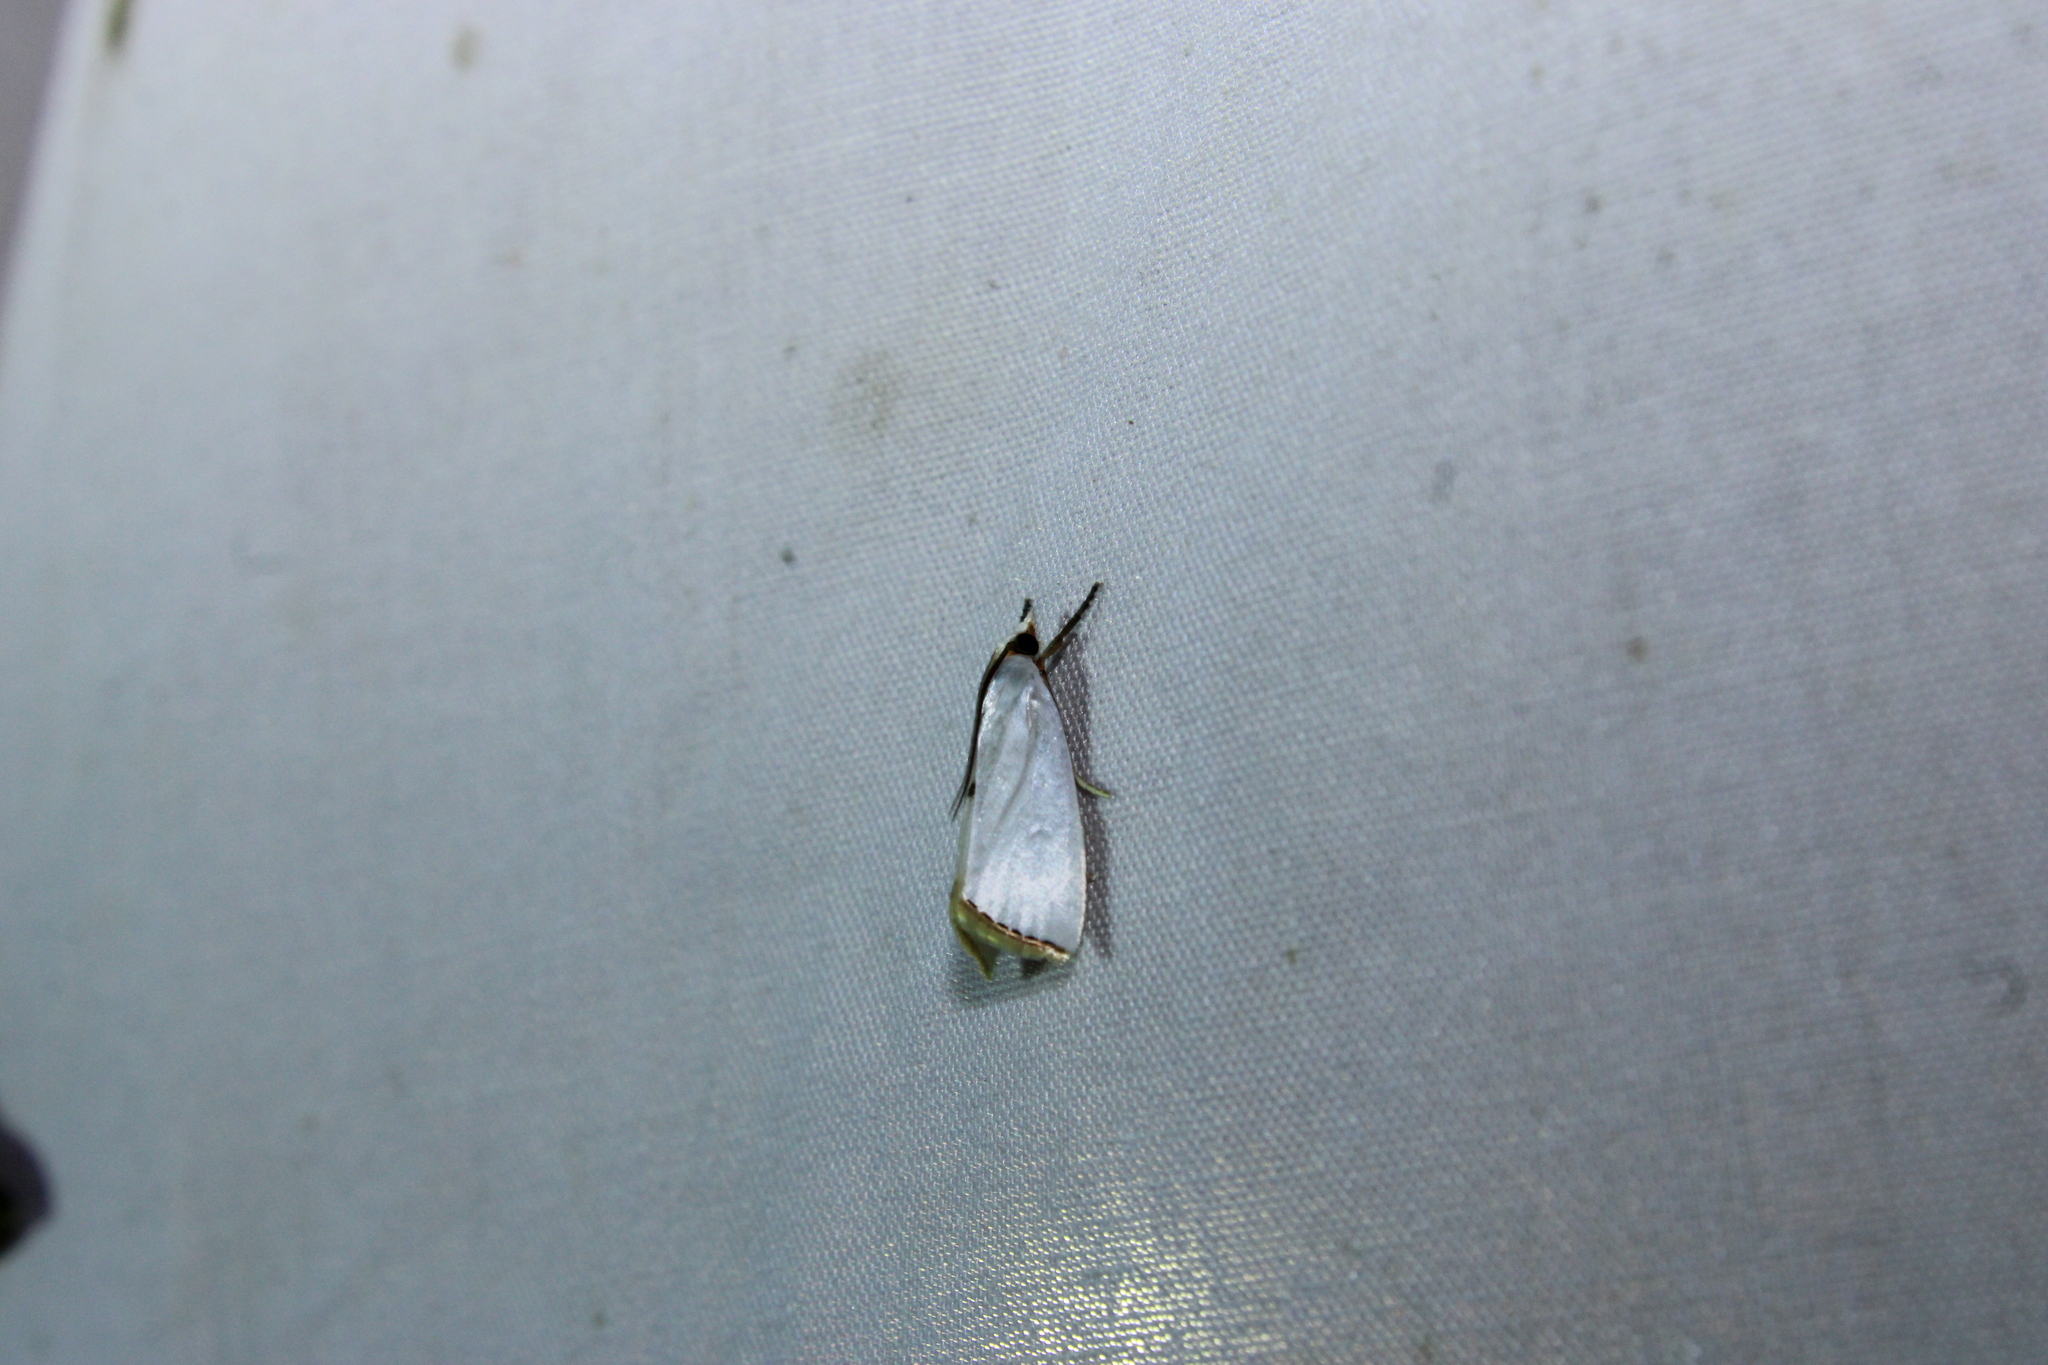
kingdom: Animalia
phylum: Arthropoda
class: Insecta
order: Lepidoptera
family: Crambidae
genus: Argyria
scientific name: Argyria nivalis
